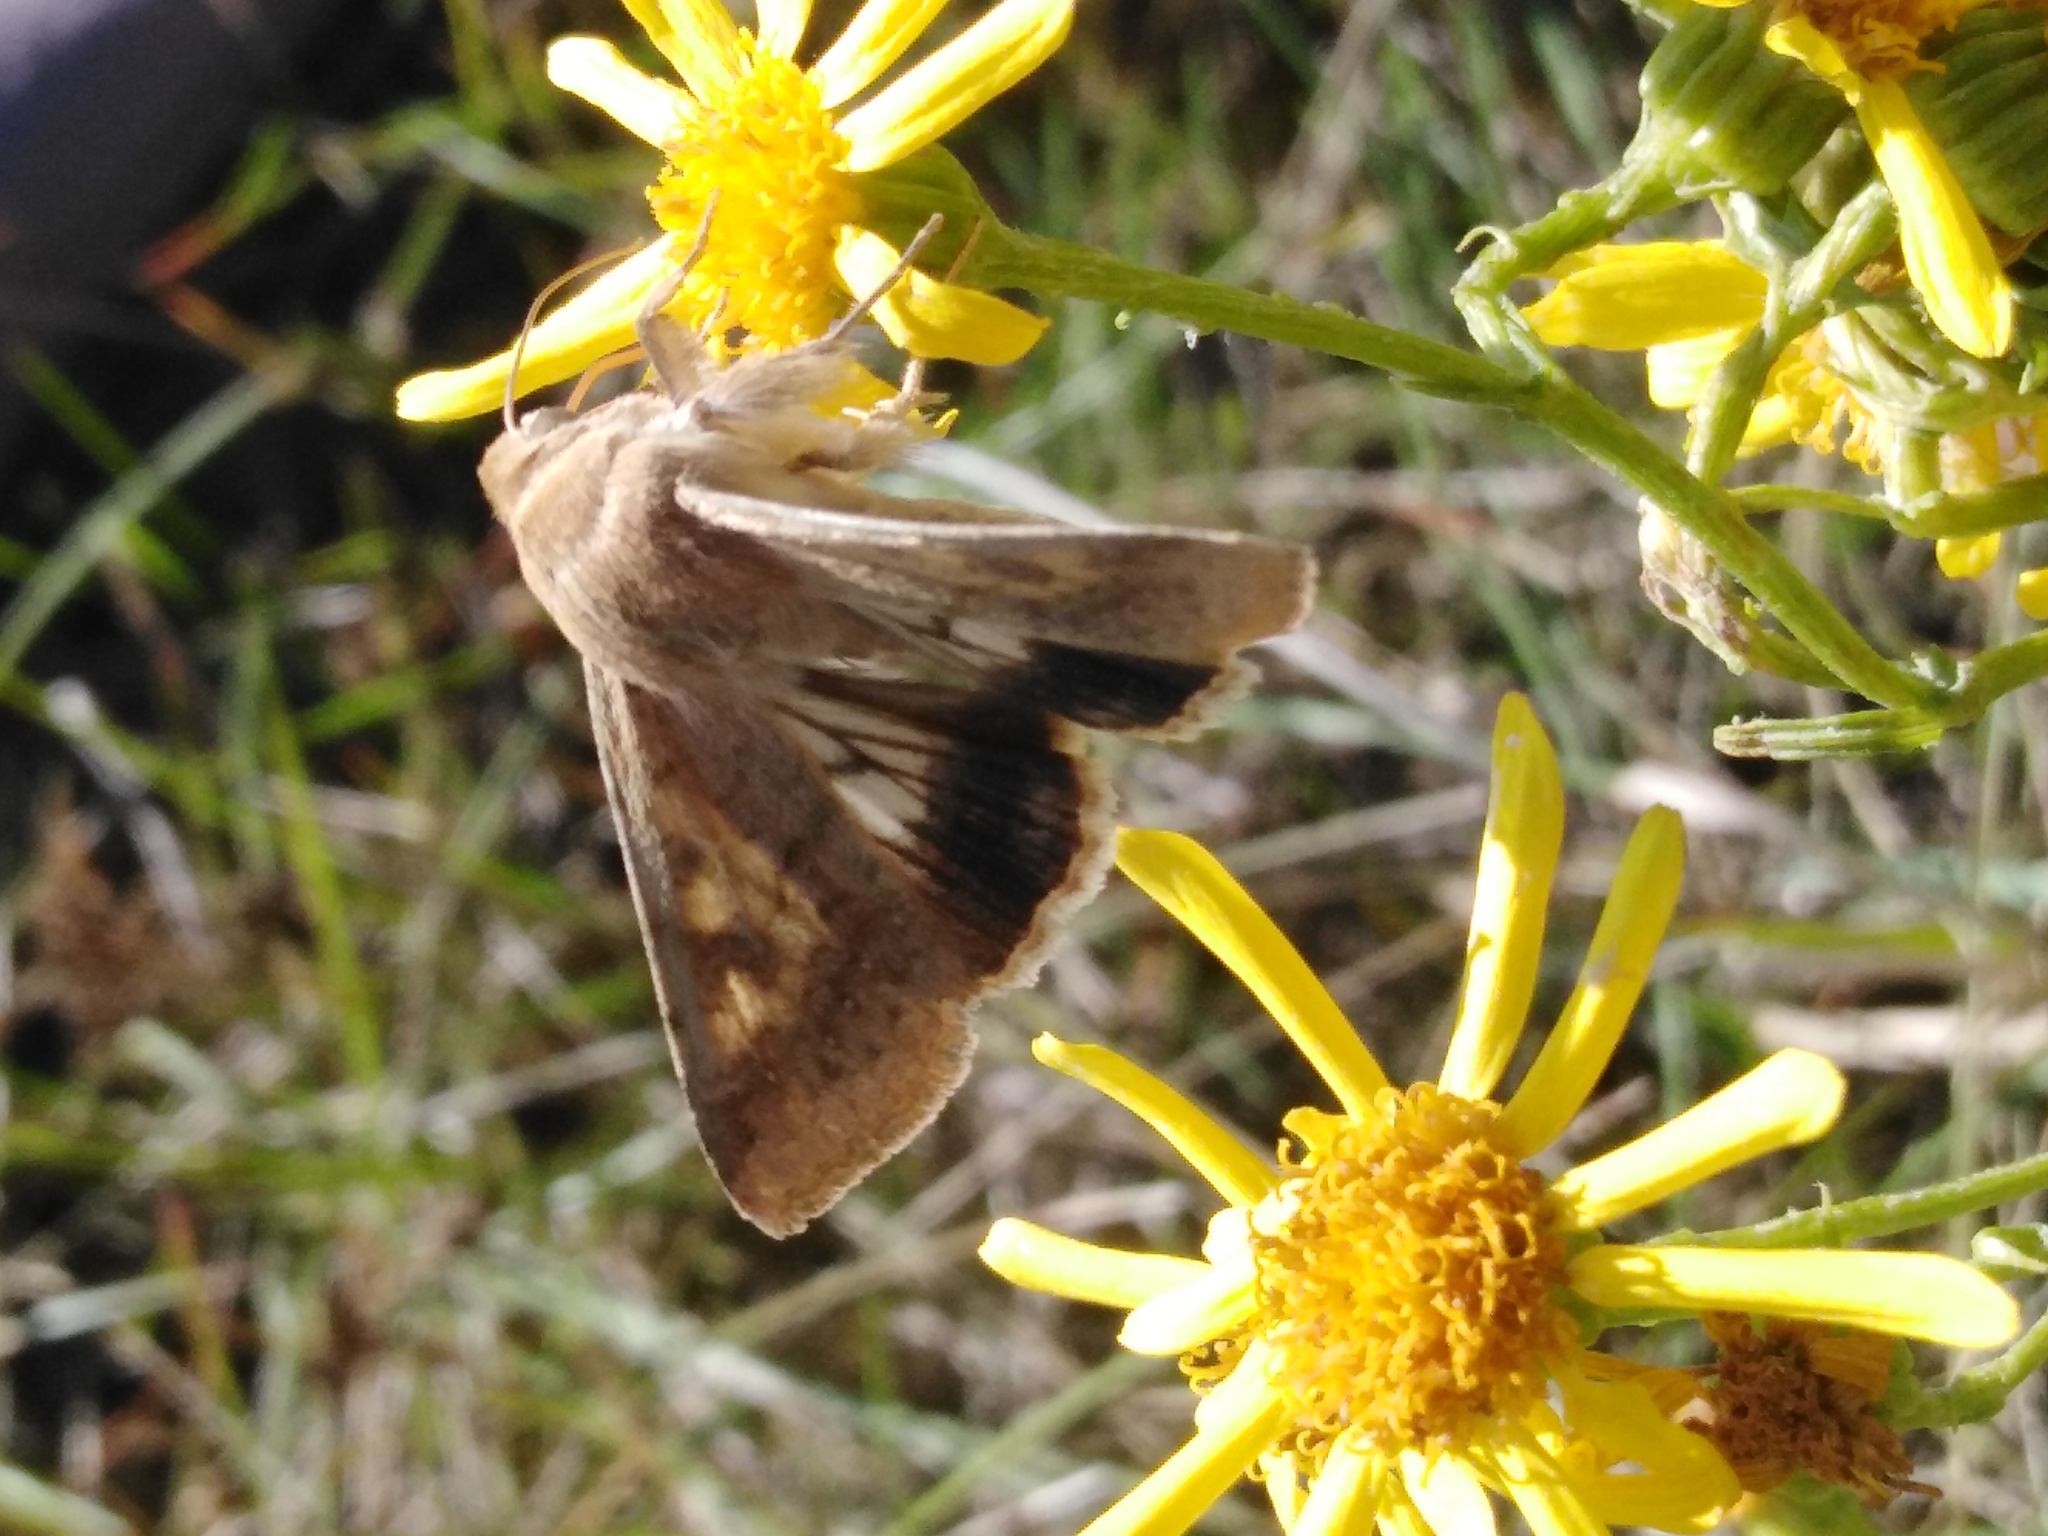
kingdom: Animalia
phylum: Arthropoda
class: Insecta
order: Lepidoptera
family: Noctuidae
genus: Helicoverpa
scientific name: Helicoverpa armigera
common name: Cotton bollworm
